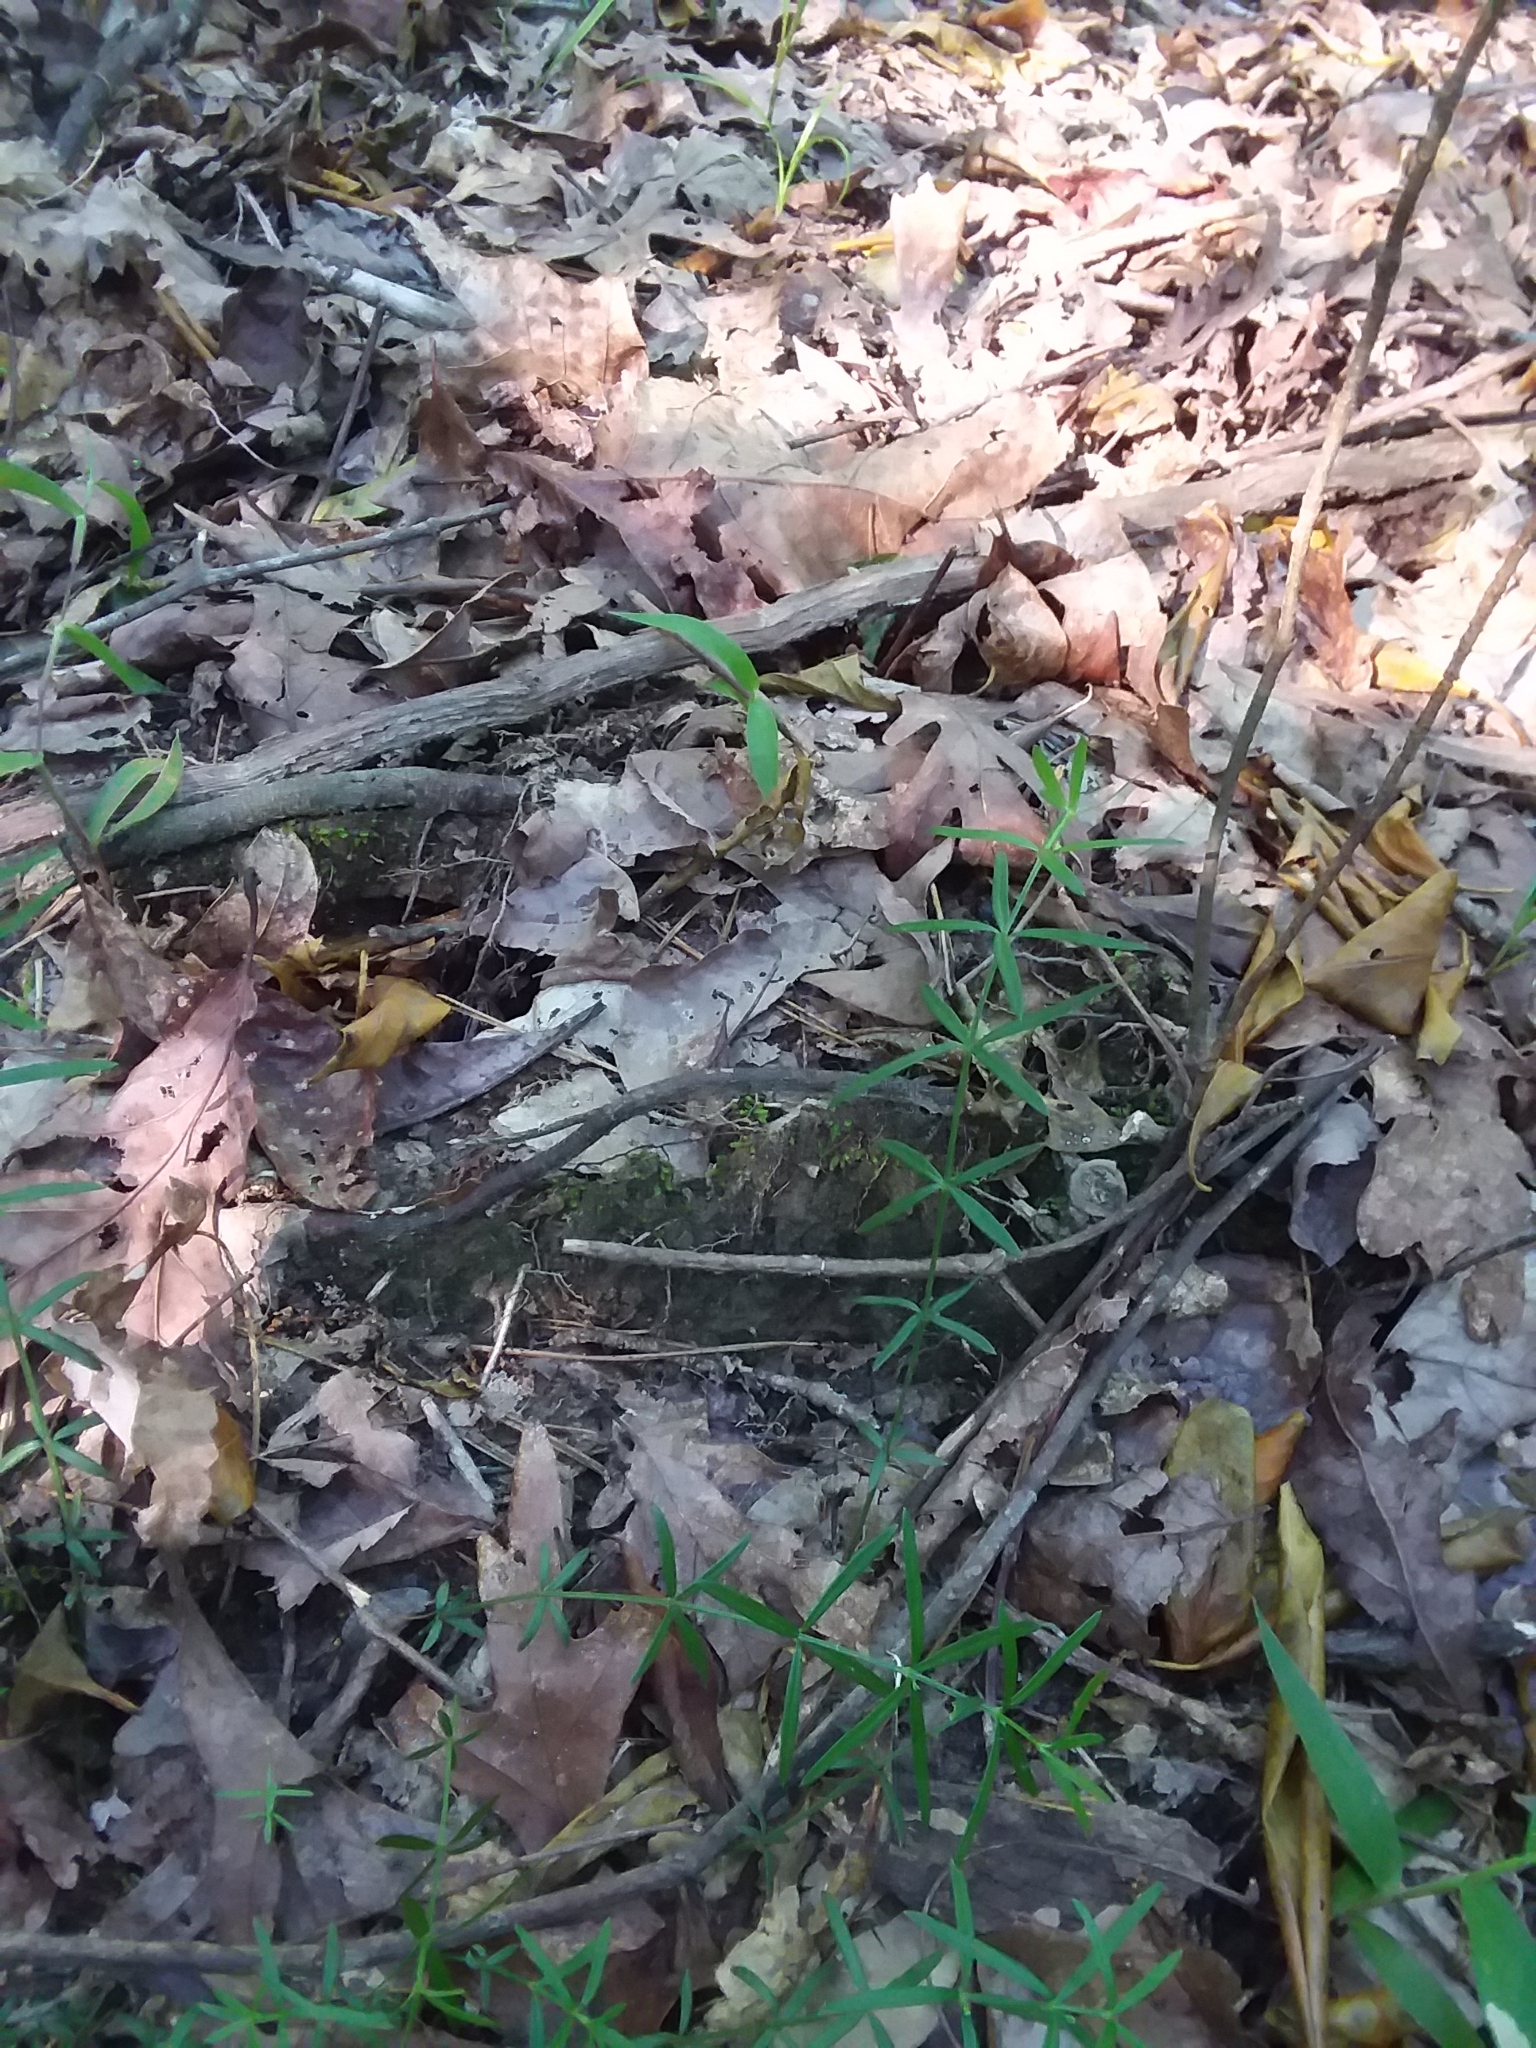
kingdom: Plantae
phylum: Tracheophyta
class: Magnoliopsida
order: Gentianales
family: Rubiaceae
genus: Galium
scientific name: Galium uniflorum
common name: One-flower bedstraw
